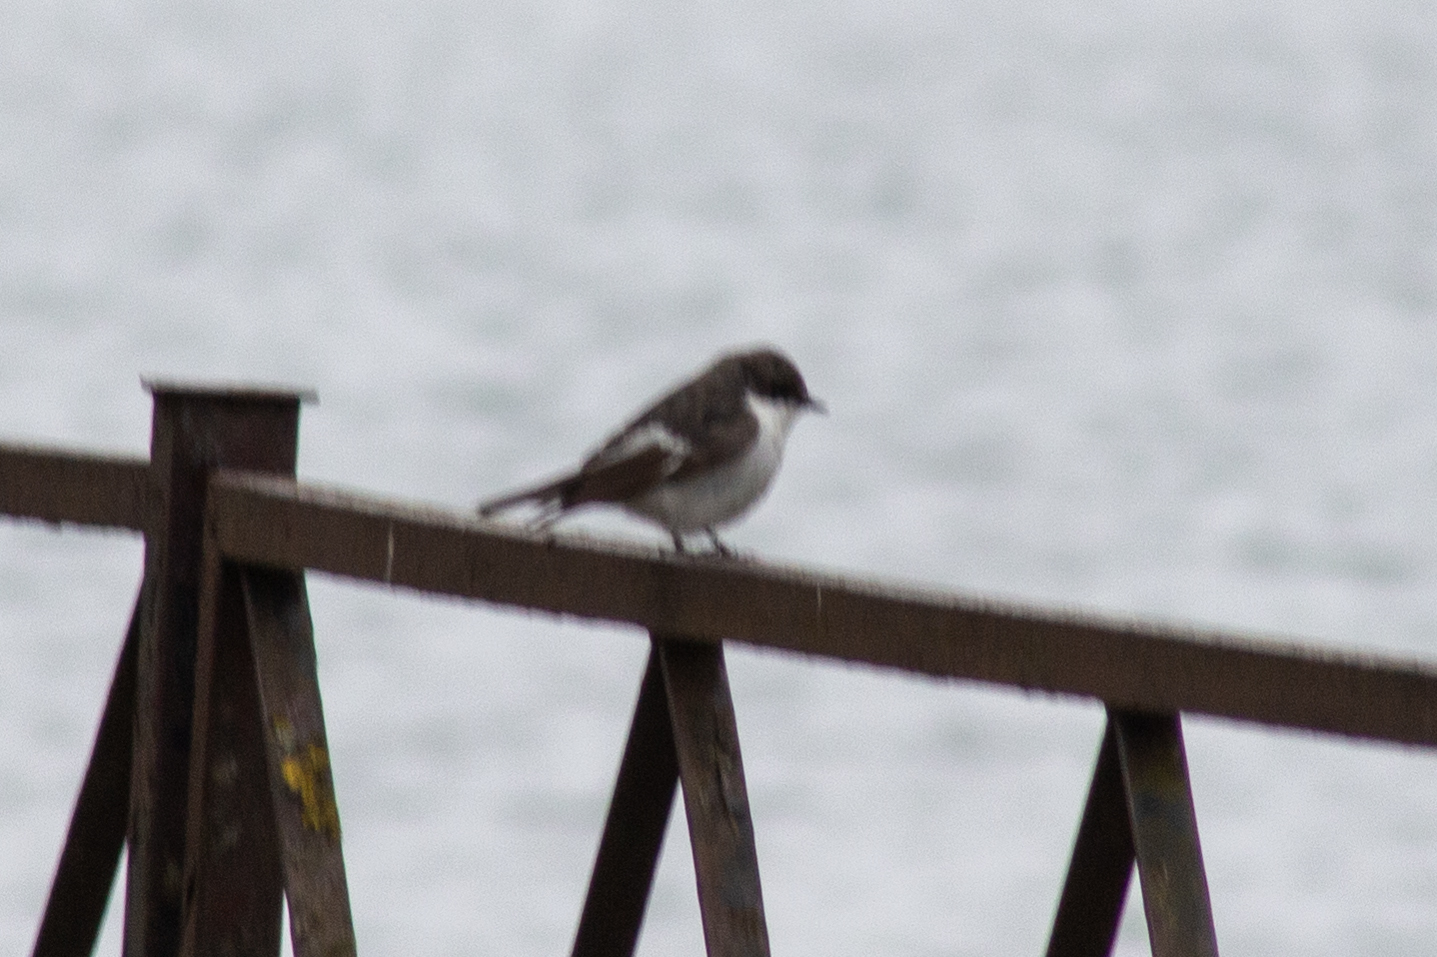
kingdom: Animalia
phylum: Chordata
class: Aves
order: Passeriformes
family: Muscicapidae
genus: Ficedula
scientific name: Ficedula hypoleuca
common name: European pied flycatcher
